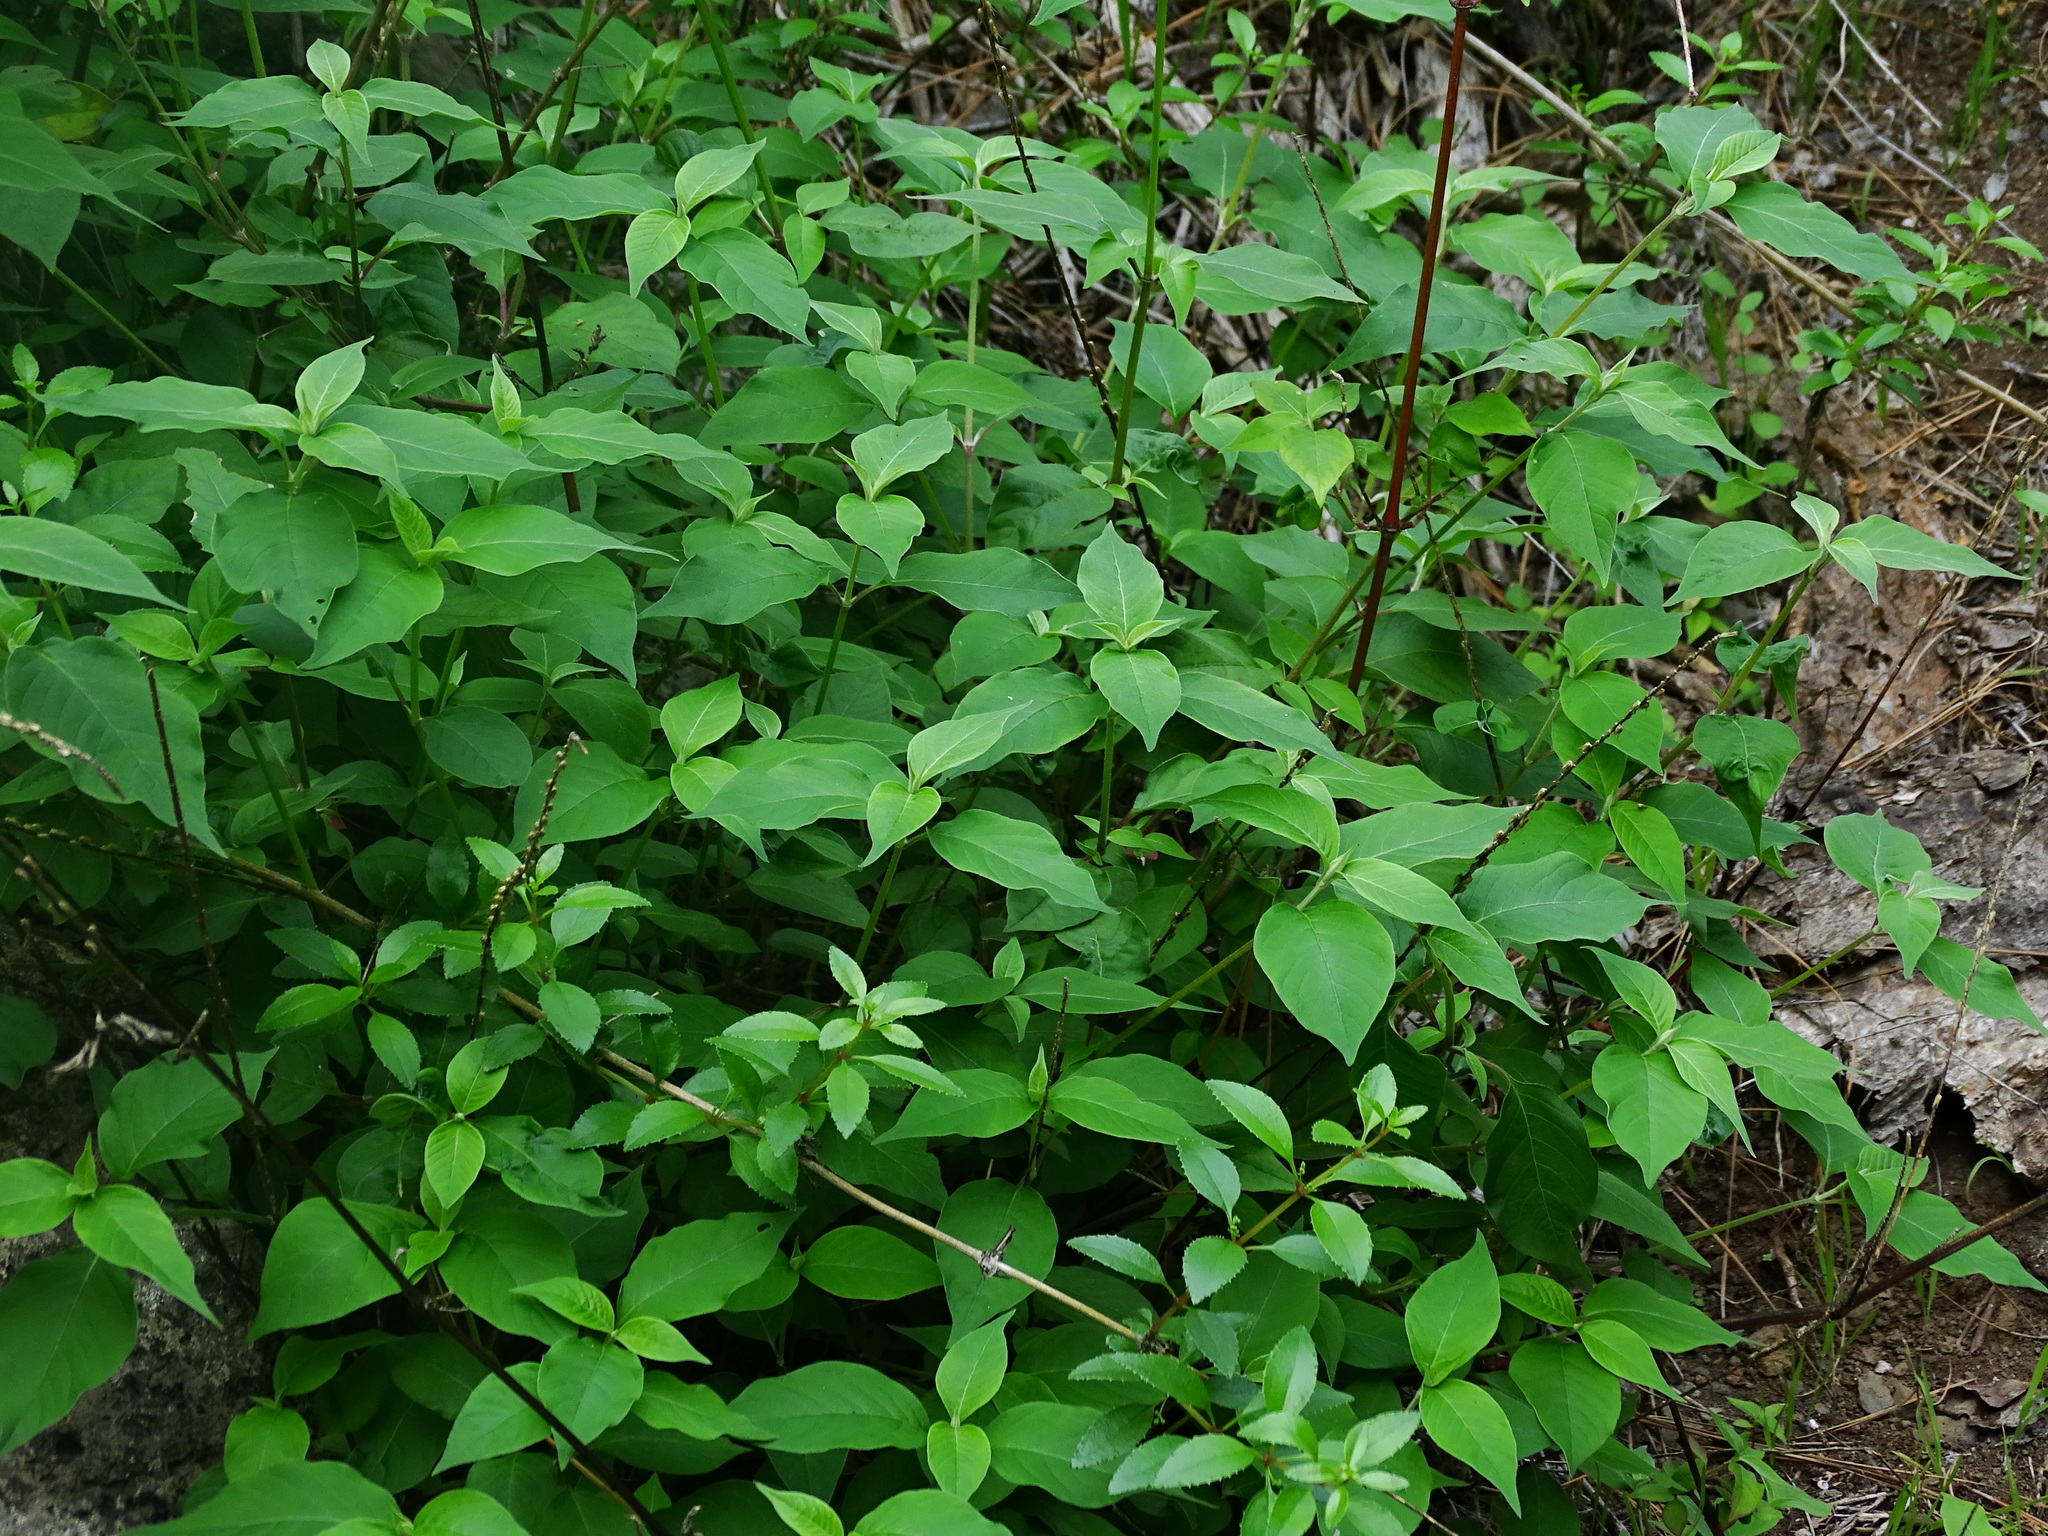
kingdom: Plantae
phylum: Tracheophyta
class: Magnoliopsida
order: Caryophyllales
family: Amaranthaceae
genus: Achyranthes
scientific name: Achyranthes aspera
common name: Devil's horsewhip
